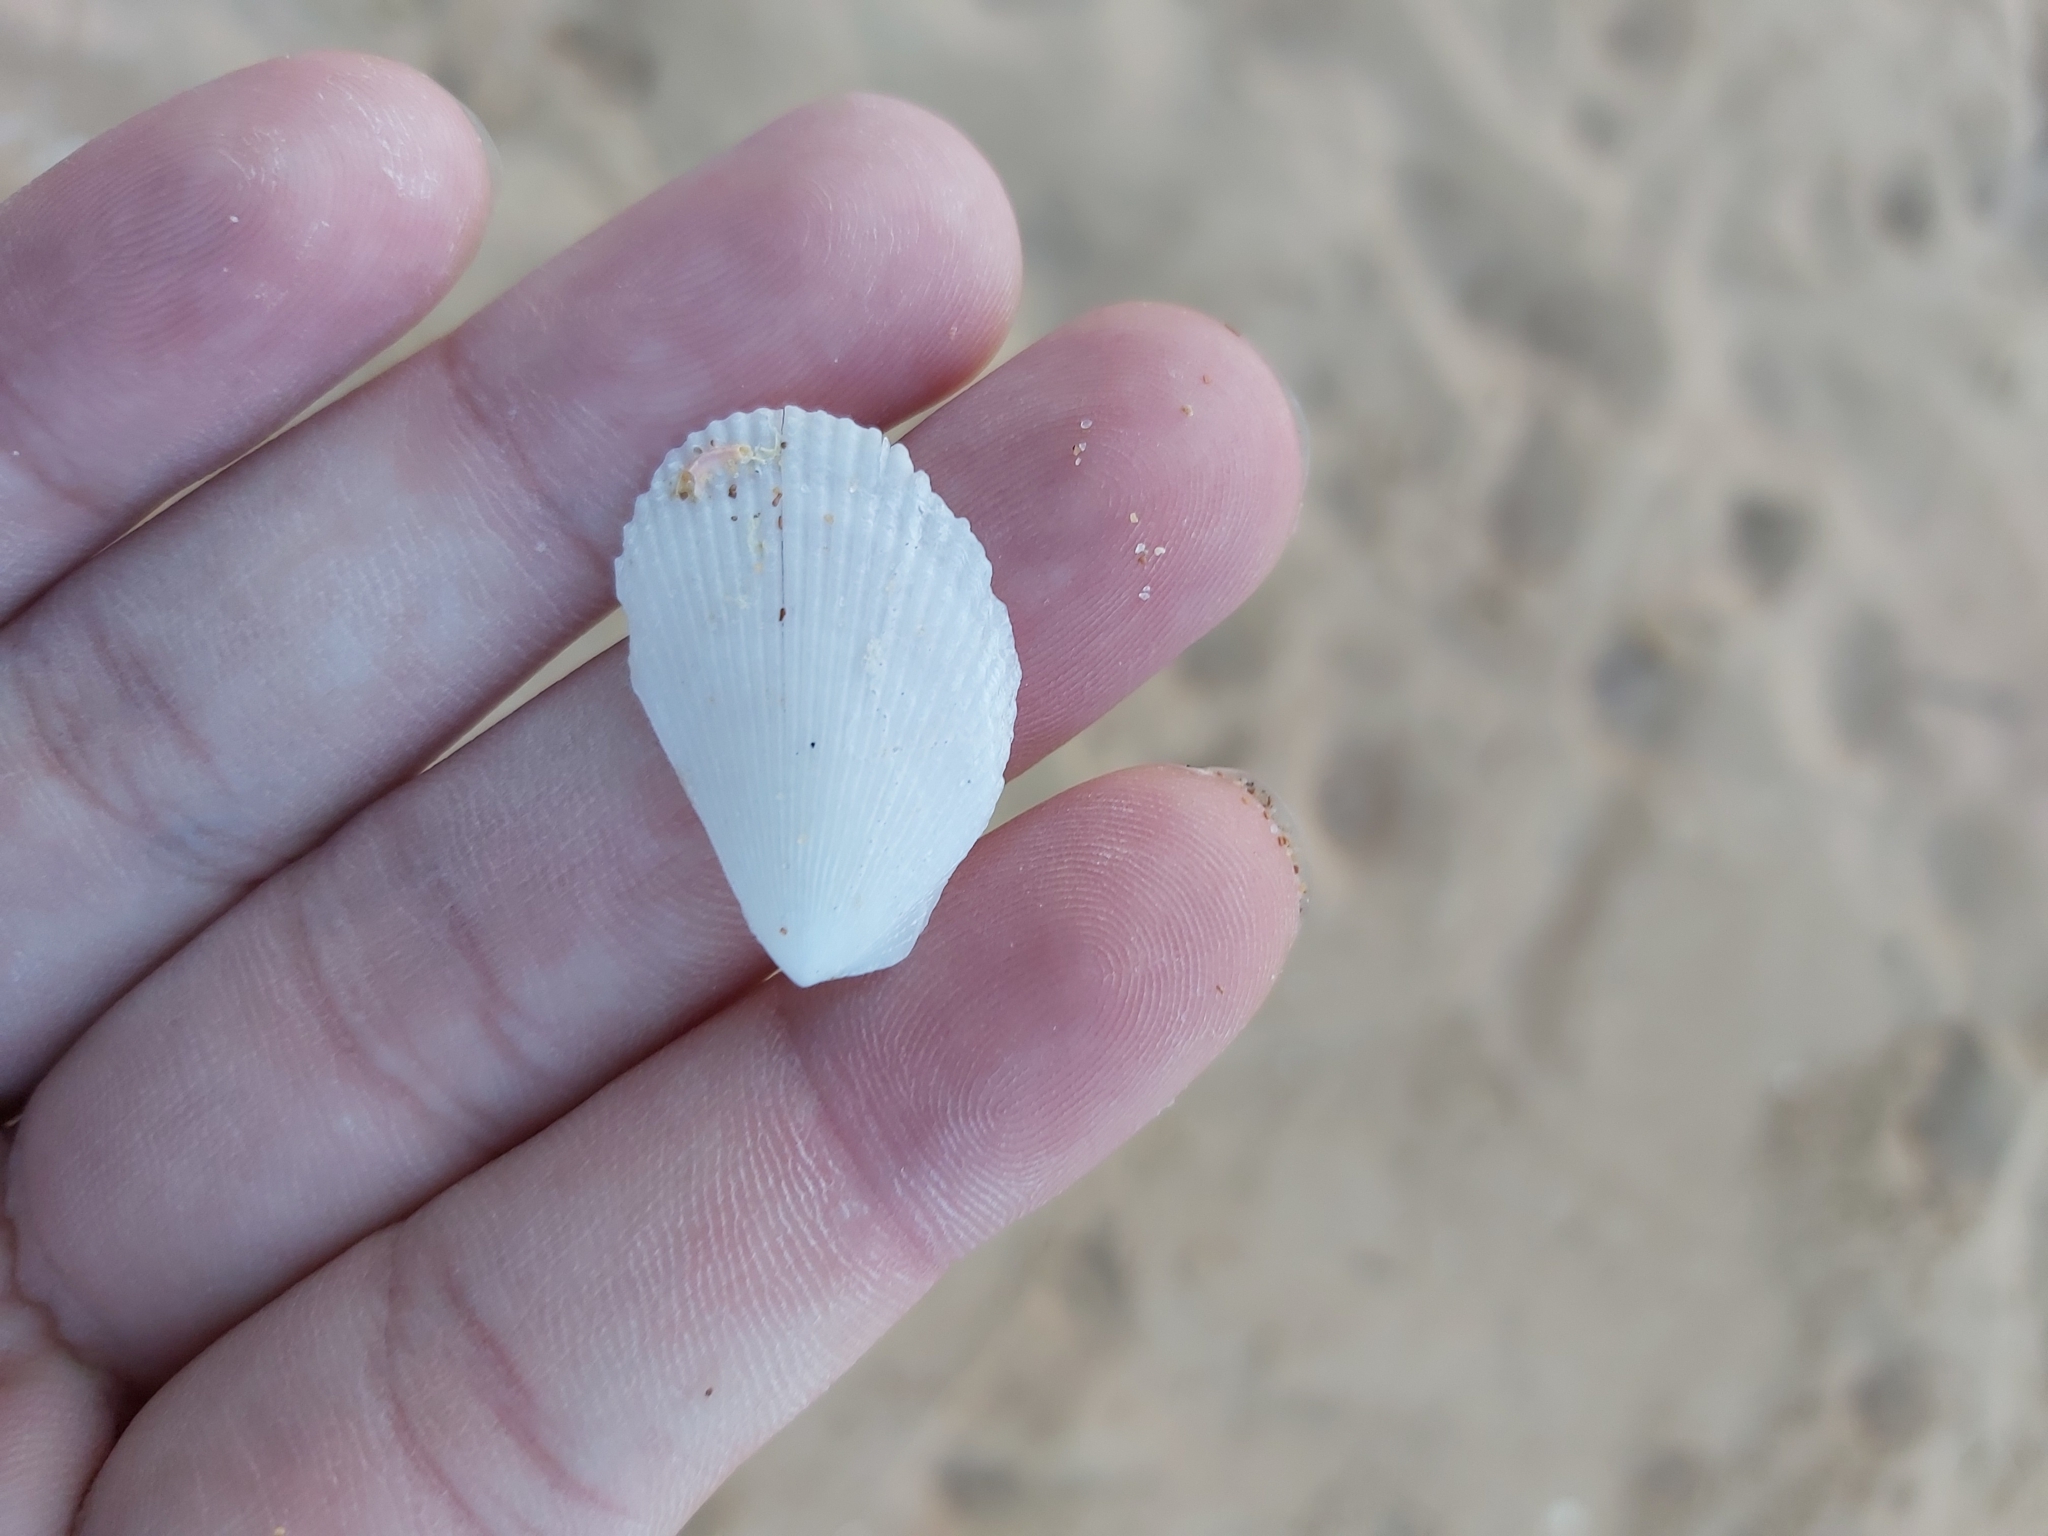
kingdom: Animalia
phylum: Mollusca
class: Bivalvia
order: Limida
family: Limidae
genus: Lima
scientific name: Lima nimbifer
